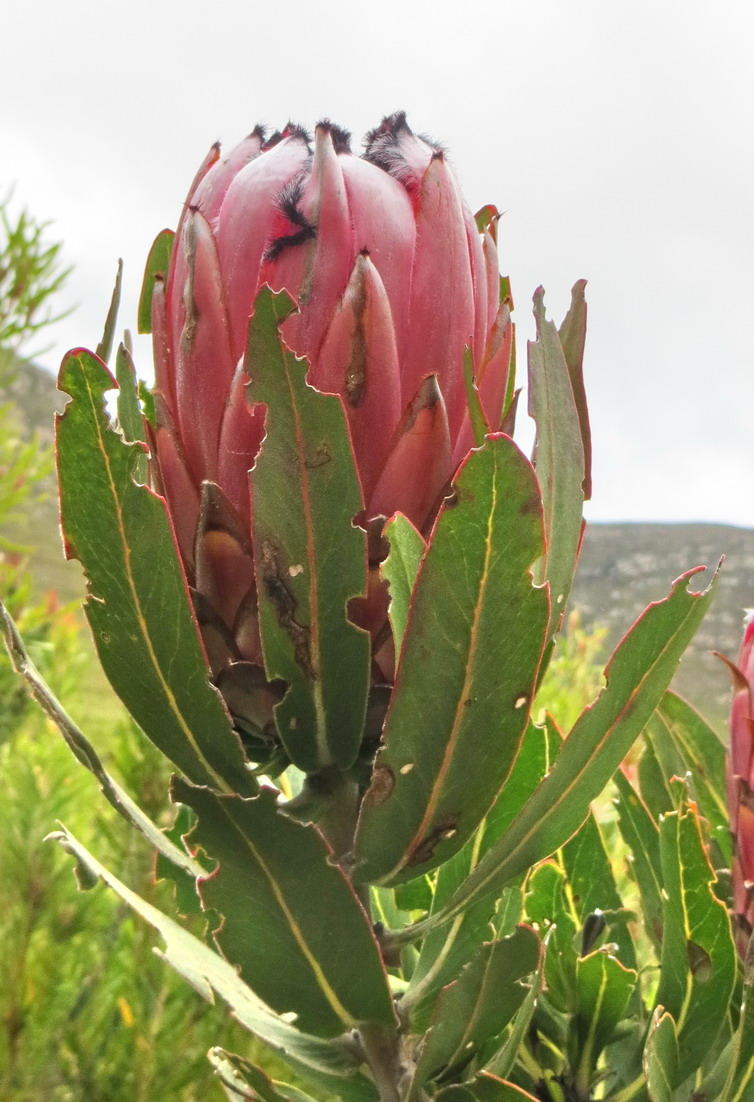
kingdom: Plantae
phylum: Tracheophyta
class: Magnoliopsida
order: Proteales
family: Proteaceae
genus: Protea
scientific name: Protea neriifolia
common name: Blue sugarbush
